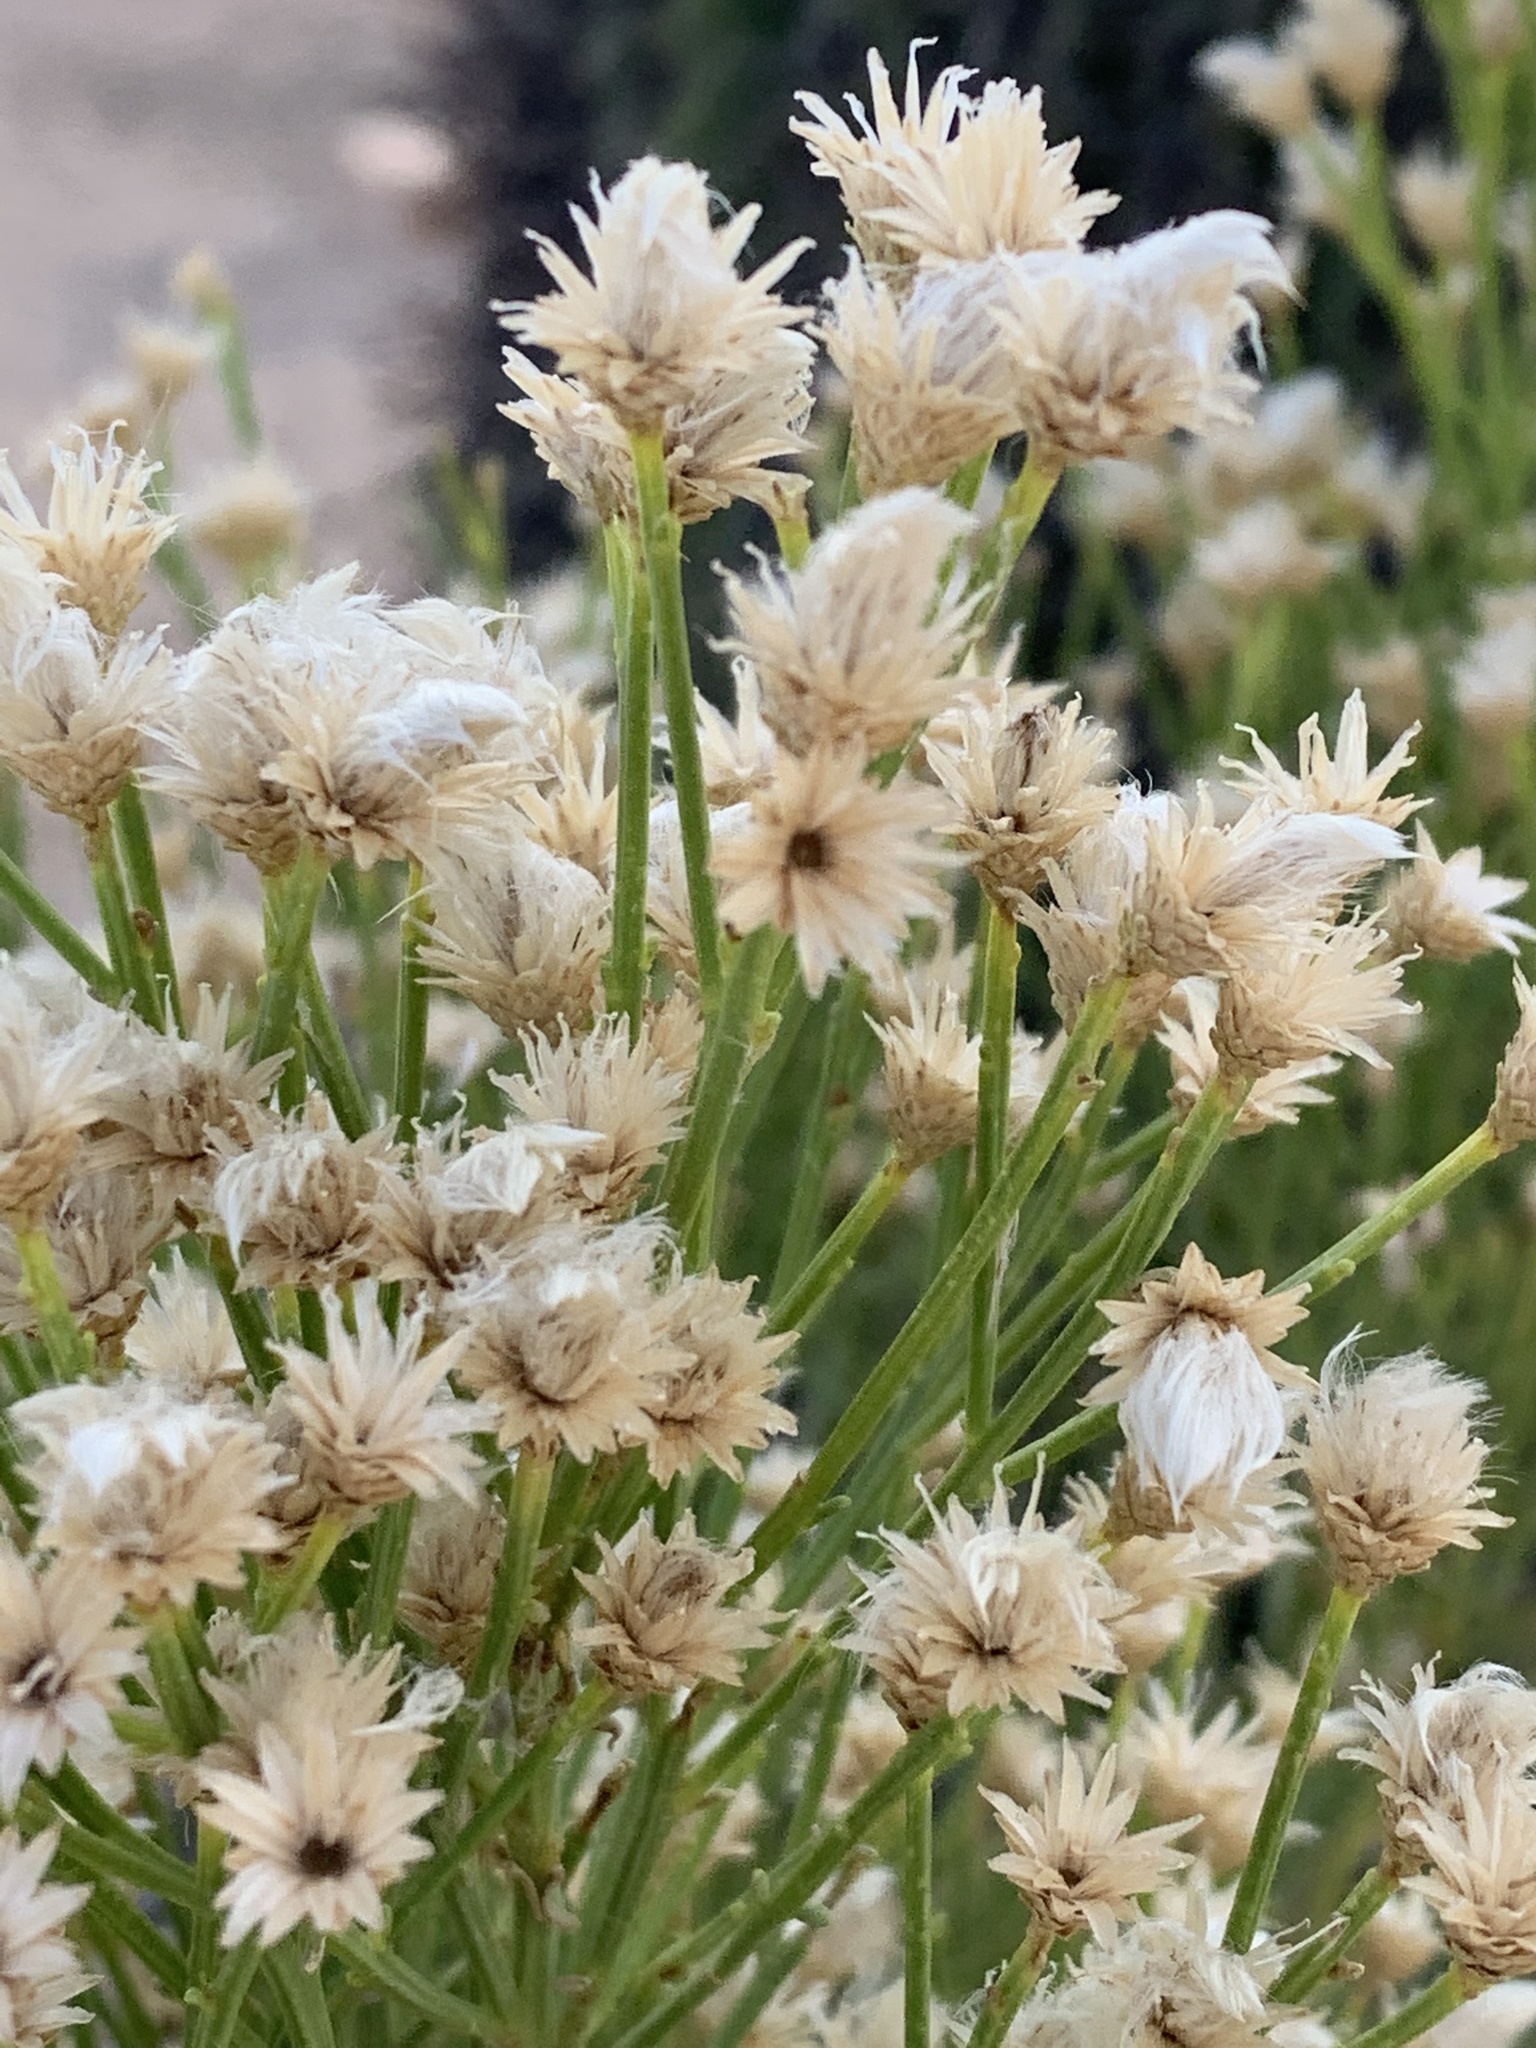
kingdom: Plantae
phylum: Tracheophyta
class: Magnoliopsida
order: Asterales
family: Asteraceae
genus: Baccharis
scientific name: Baccharis sarothroides
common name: Desert-broom
